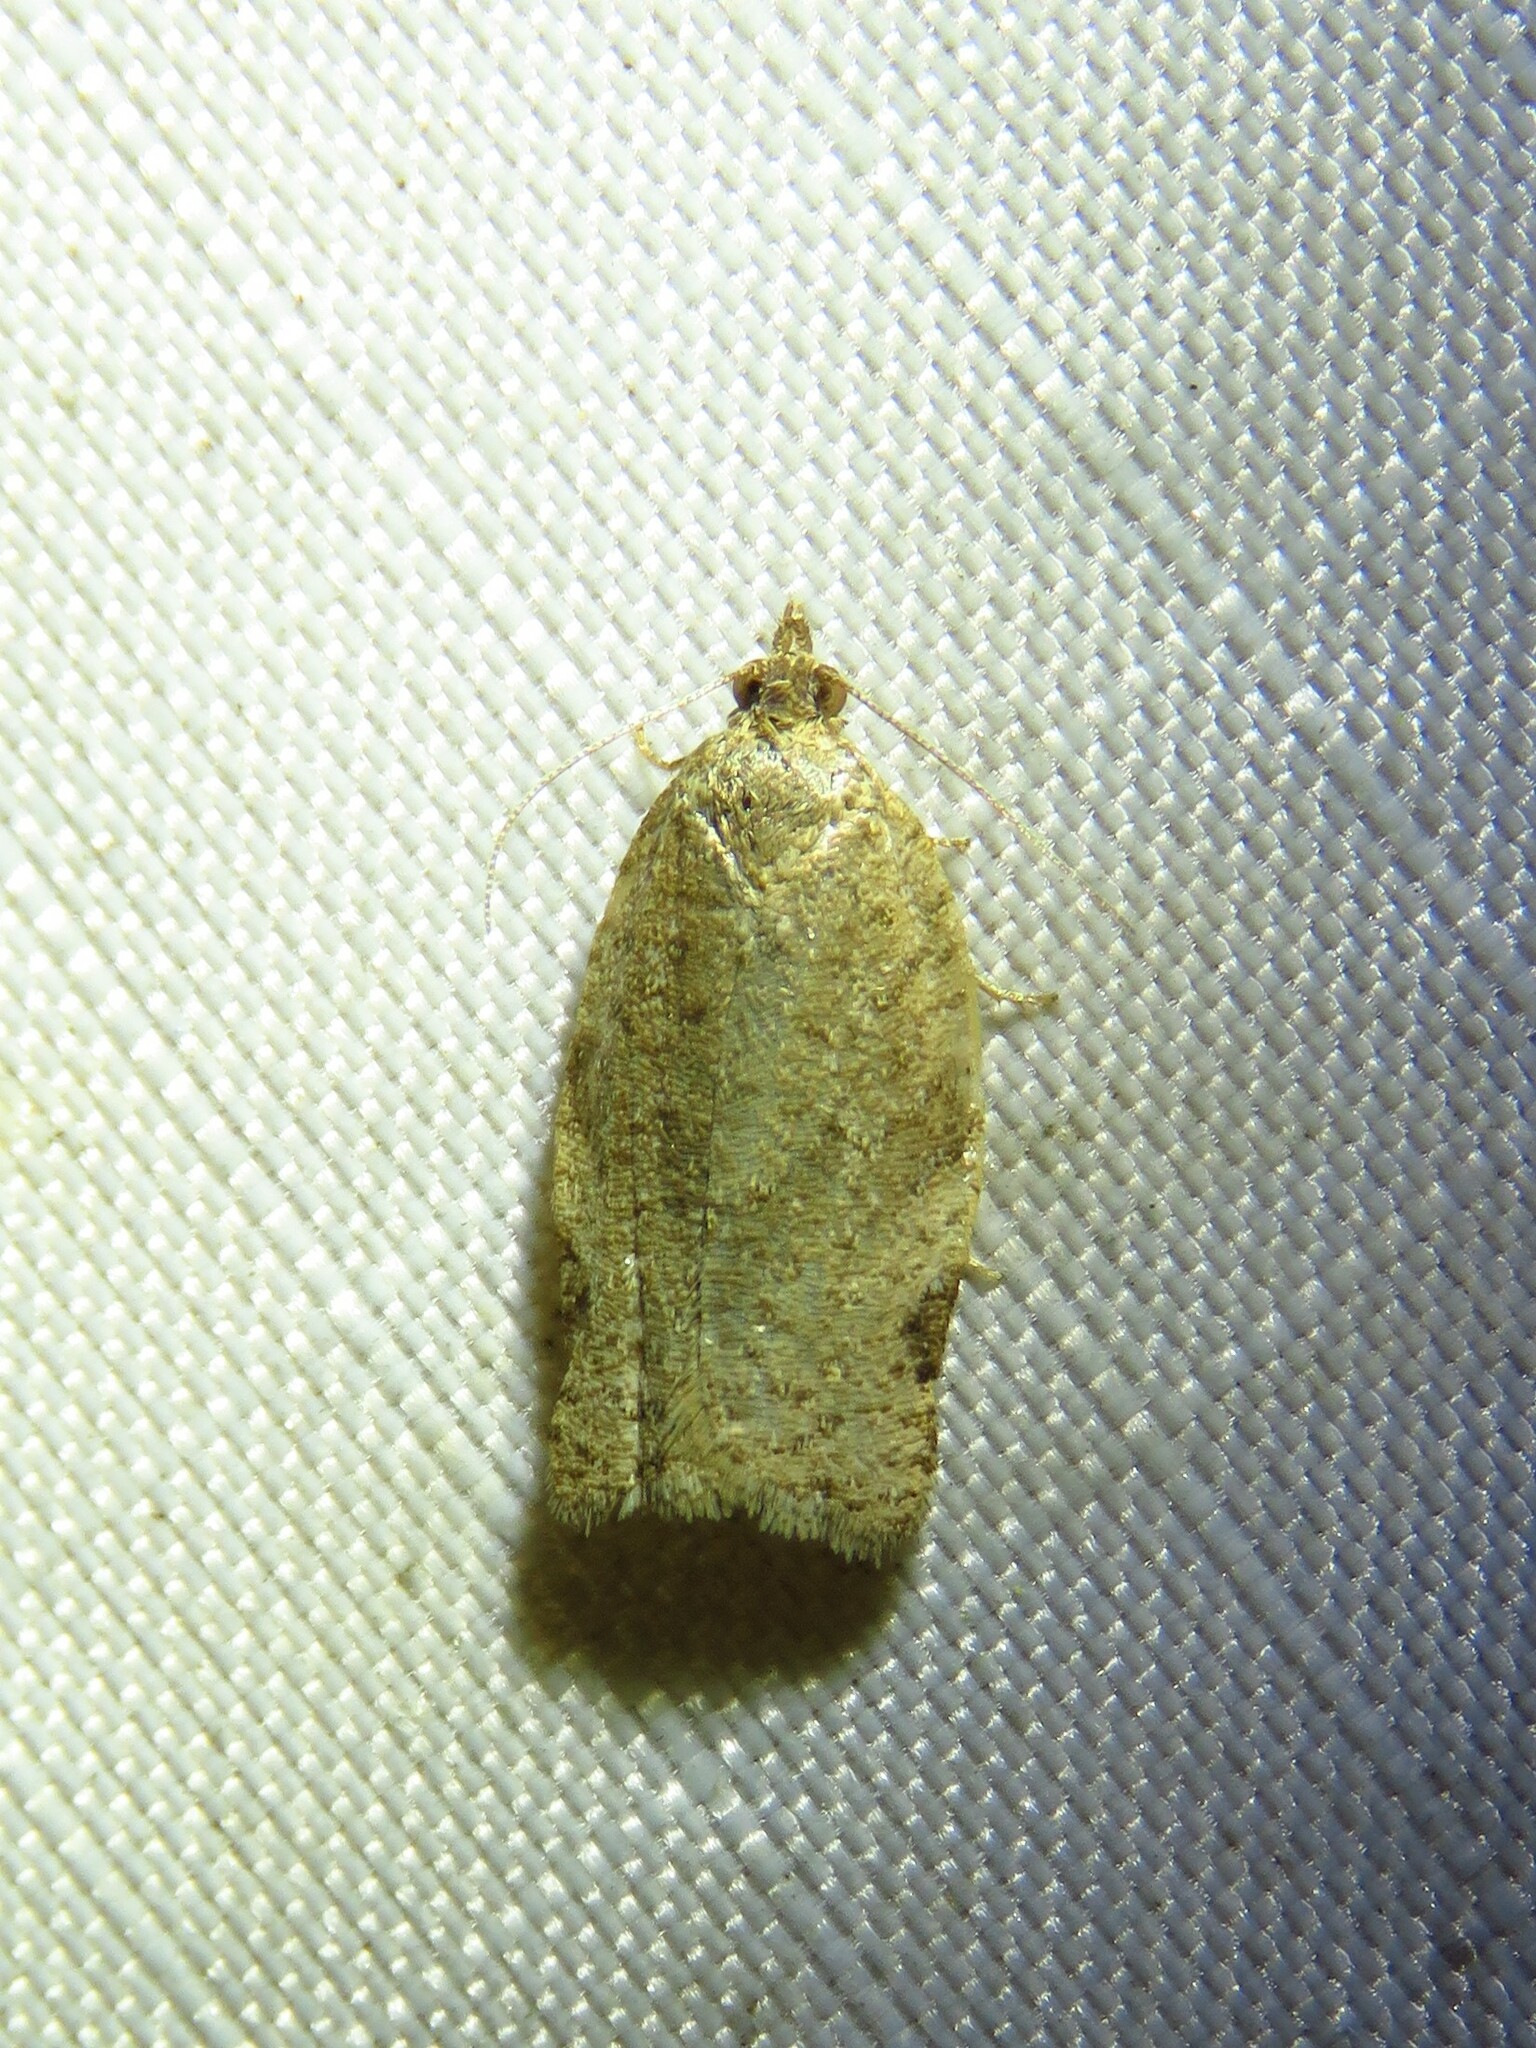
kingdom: Animalia
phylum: Arthropoda
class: Insecta
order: Lepidoptera
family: Tortricidae
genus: Clepsis
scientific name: Clepsis virescana
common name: Greenish apple moth
